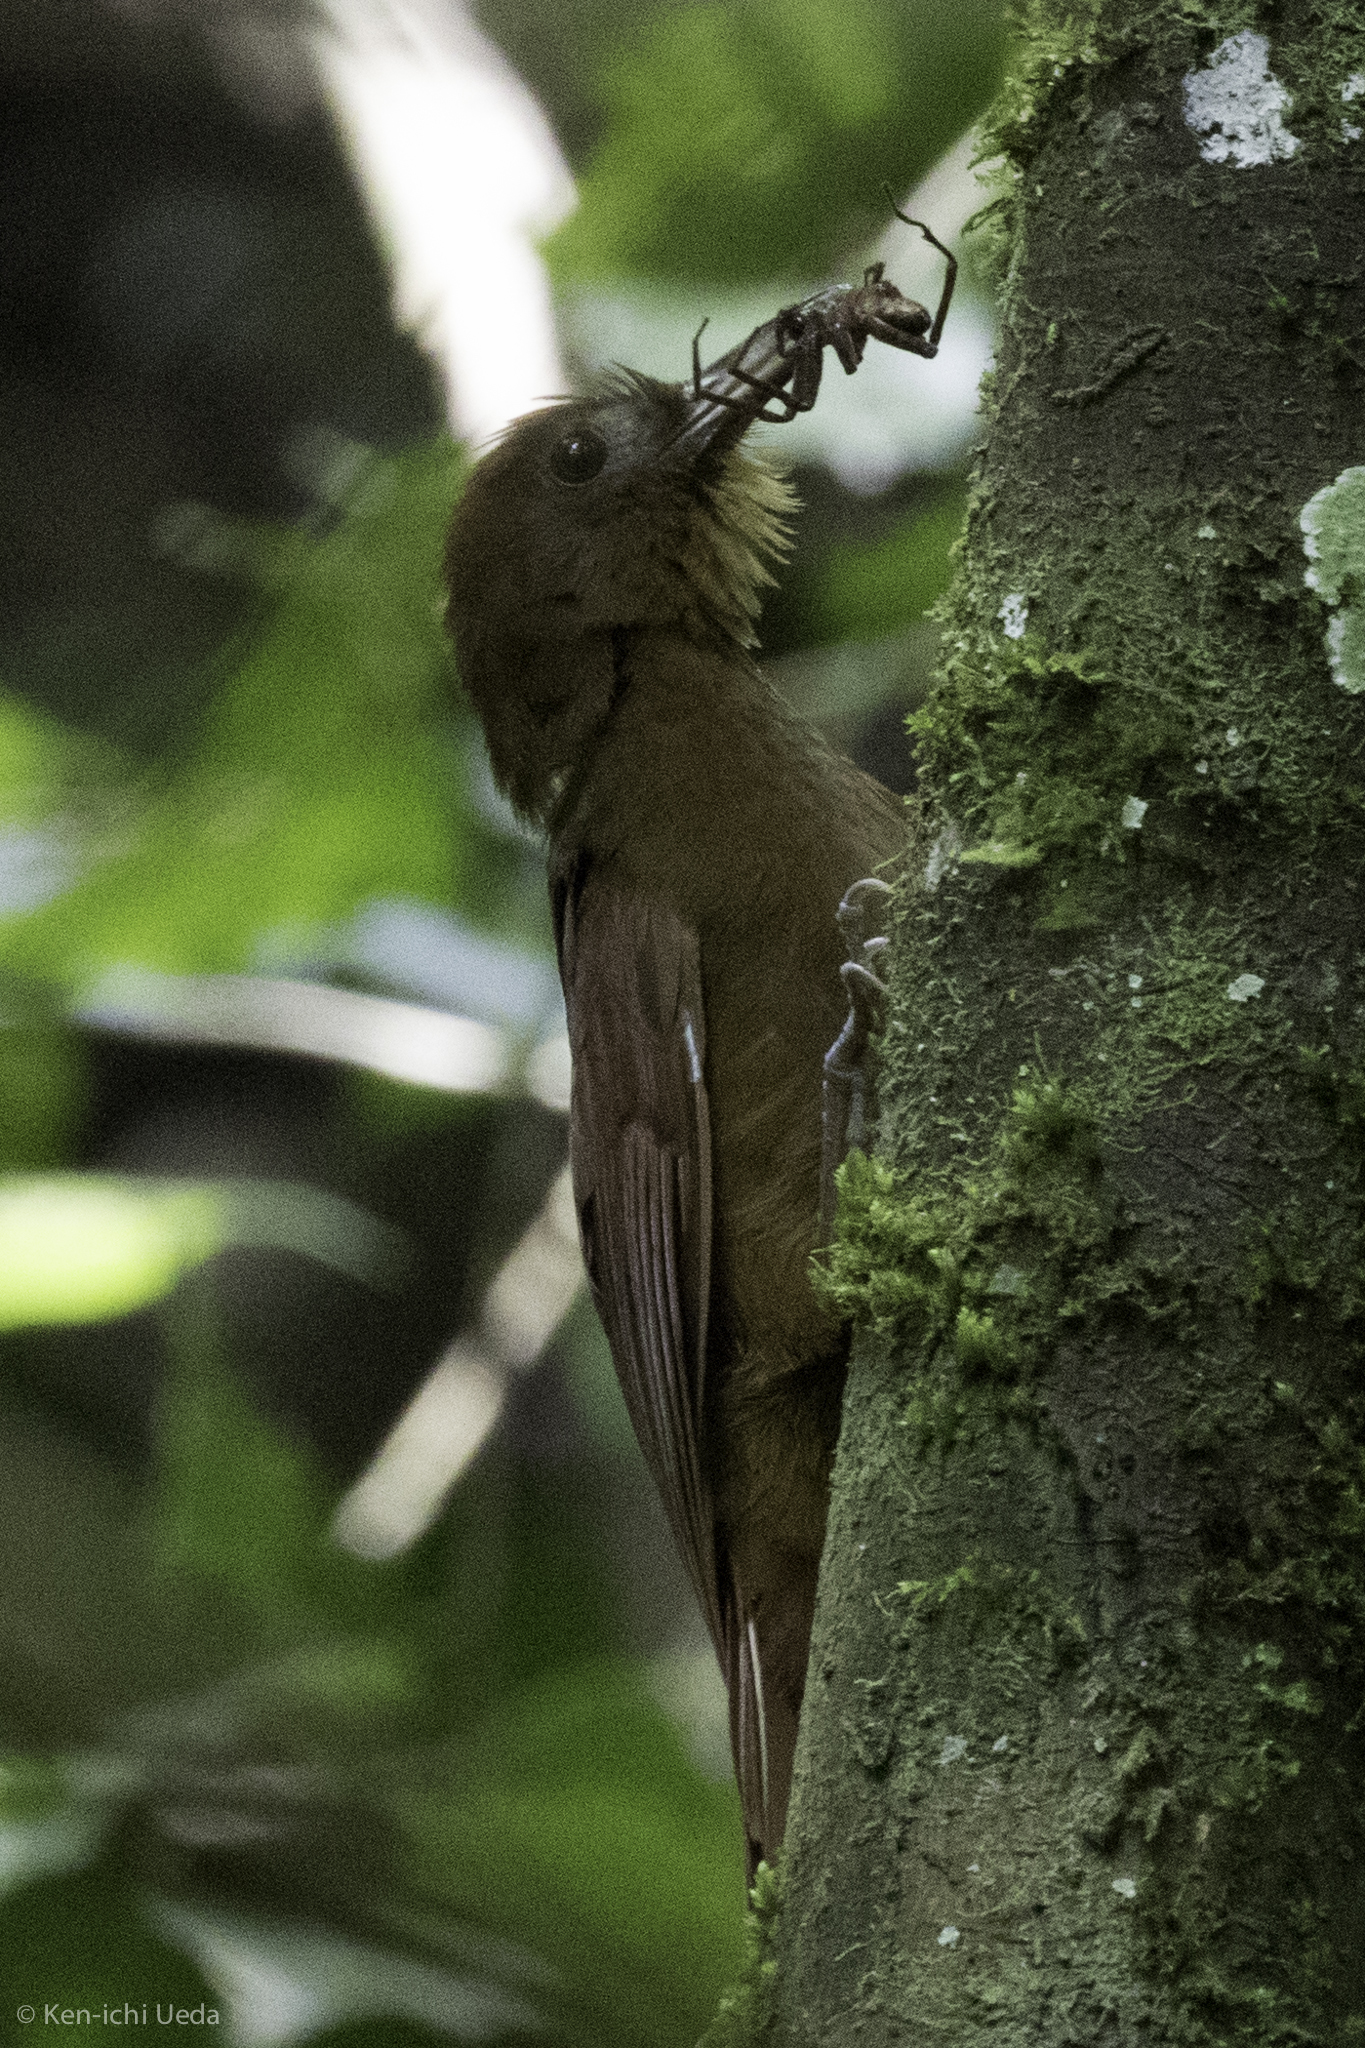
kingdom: Animalia
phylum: Chordata
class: Aves
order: Passeriformes
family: Furnariidae
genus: Dendrocincla
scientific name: Dendrocincla homochroa
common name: Ruddy woodcreeper
